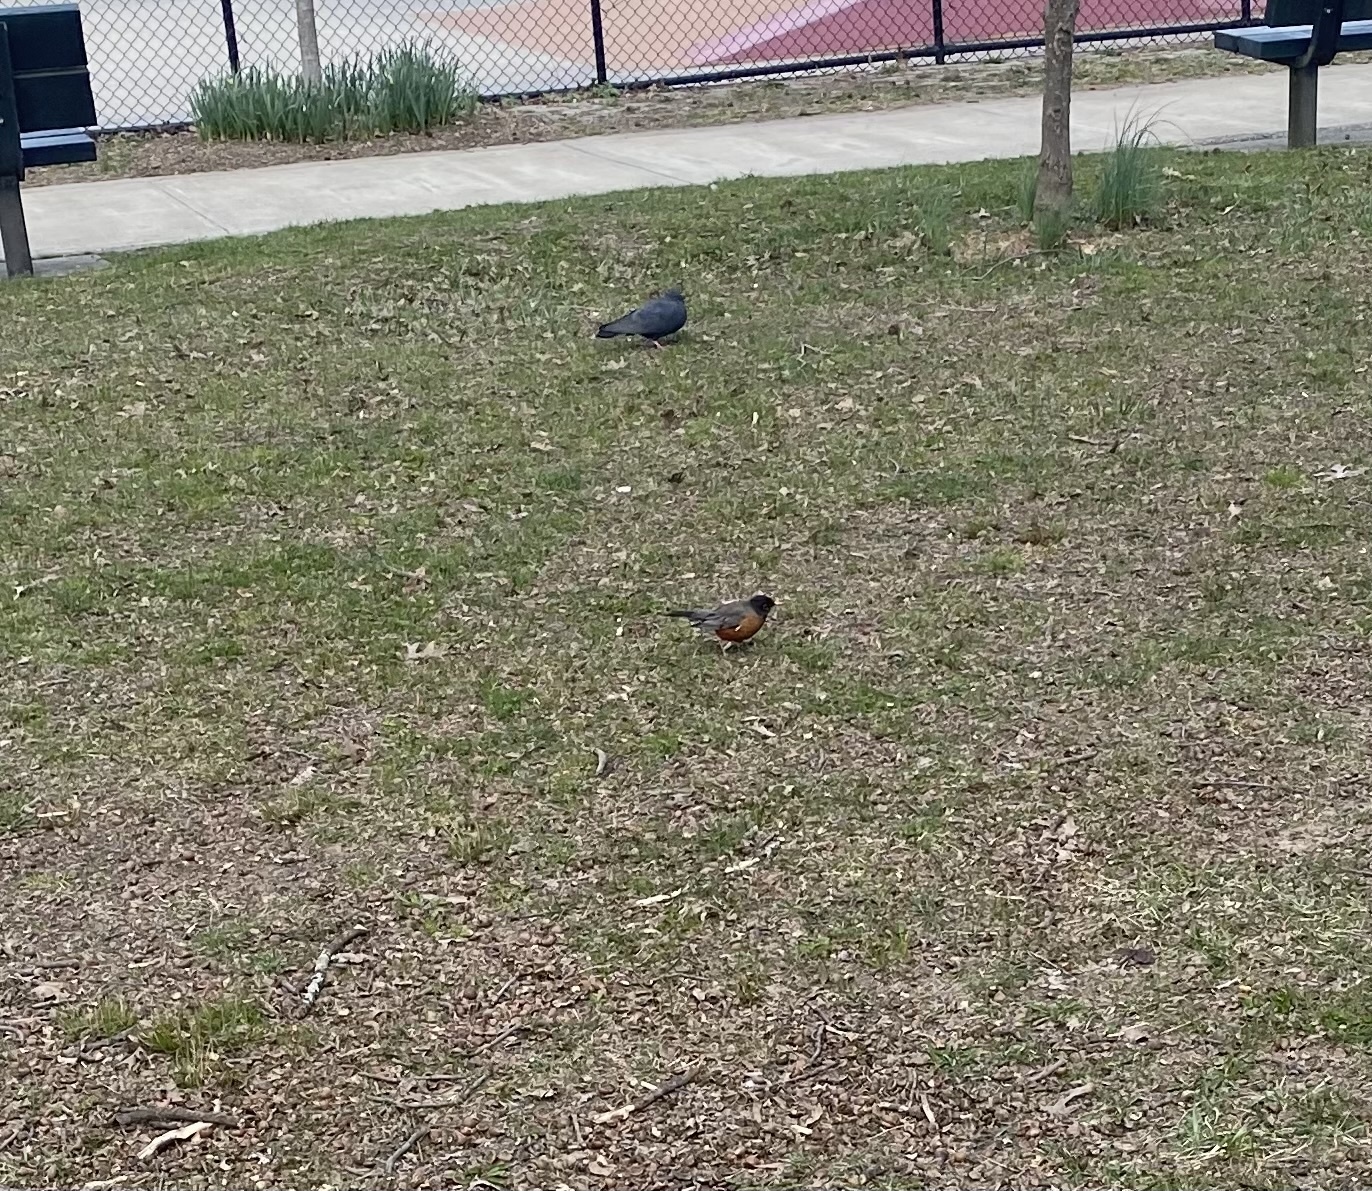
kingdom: Animalia
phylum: Chordata
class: Aves
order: Passeriformes
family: Turdidae
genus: Turdus
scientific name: Turdus migratorius
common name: American robin
